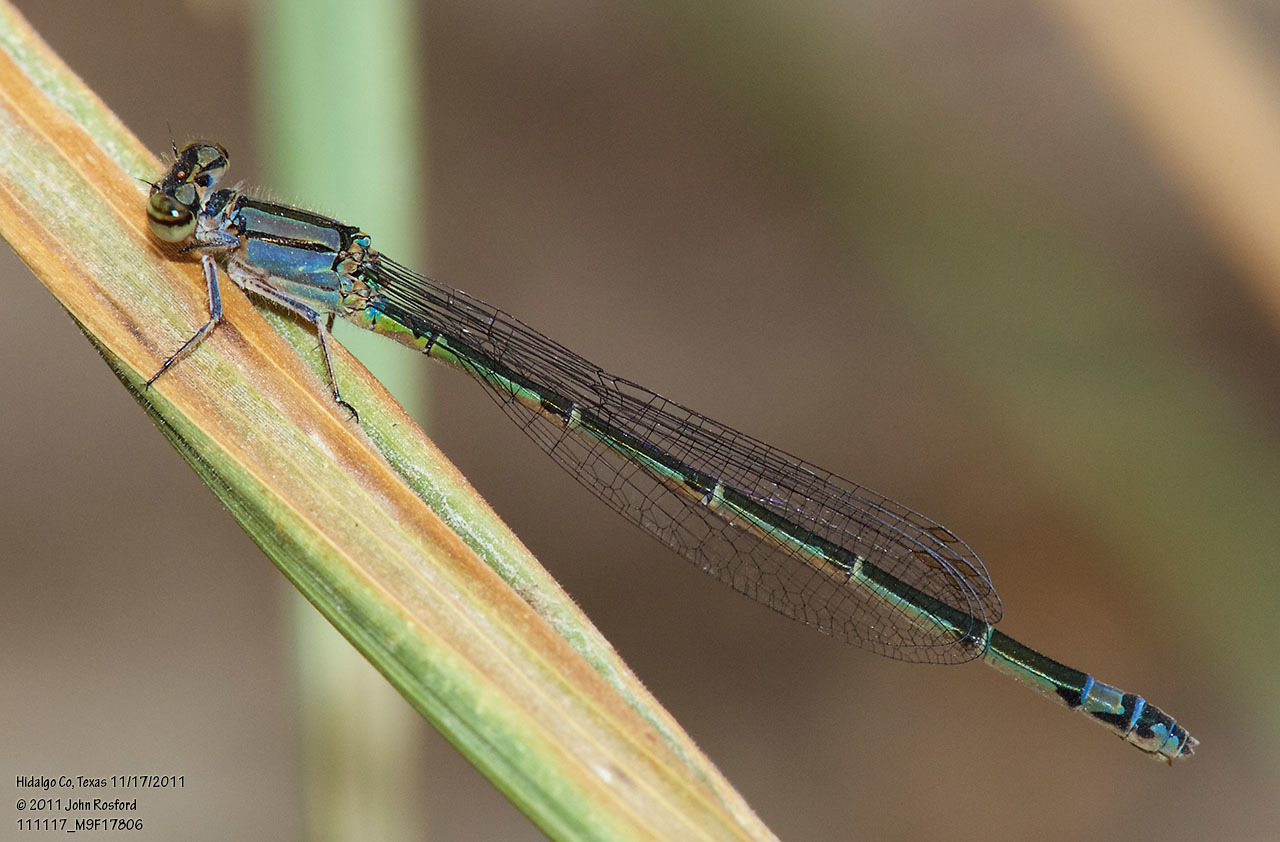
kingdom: Animalia
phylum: Arthropoda
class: Insecta
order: Odonata
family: Coenagrionidae
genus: Enallagma
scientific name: Enallagma novaehispaniae
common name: Neotropical bluet
